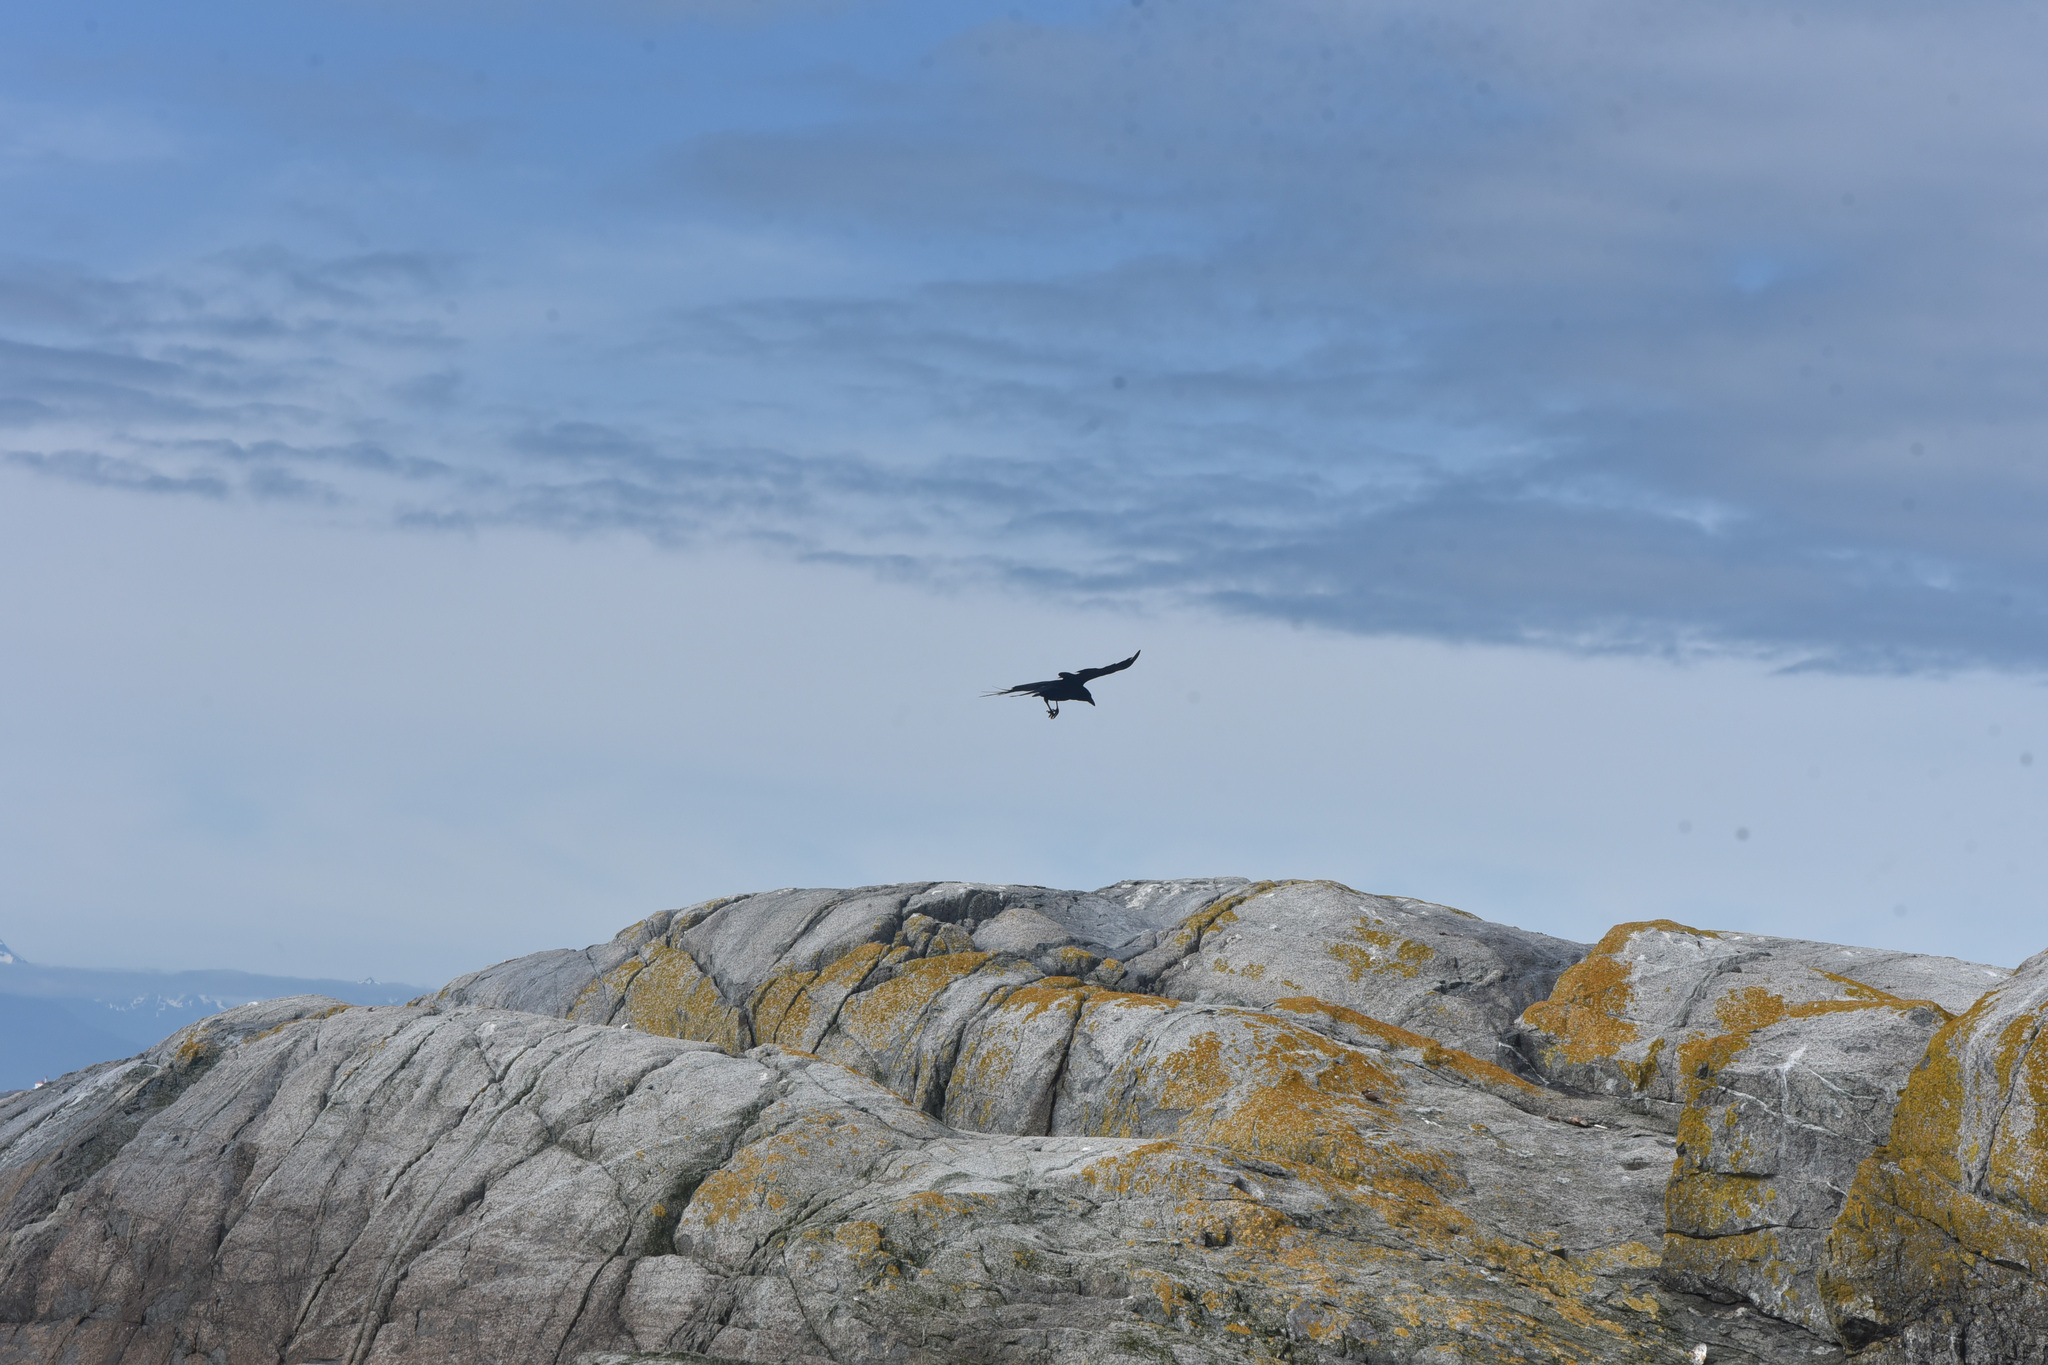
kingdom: Animalia
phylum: Chordata
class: Aves
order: Passeriformes
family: Corvidae
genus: Corvus
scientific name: Corvus brachyrhynchos
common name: American crow
